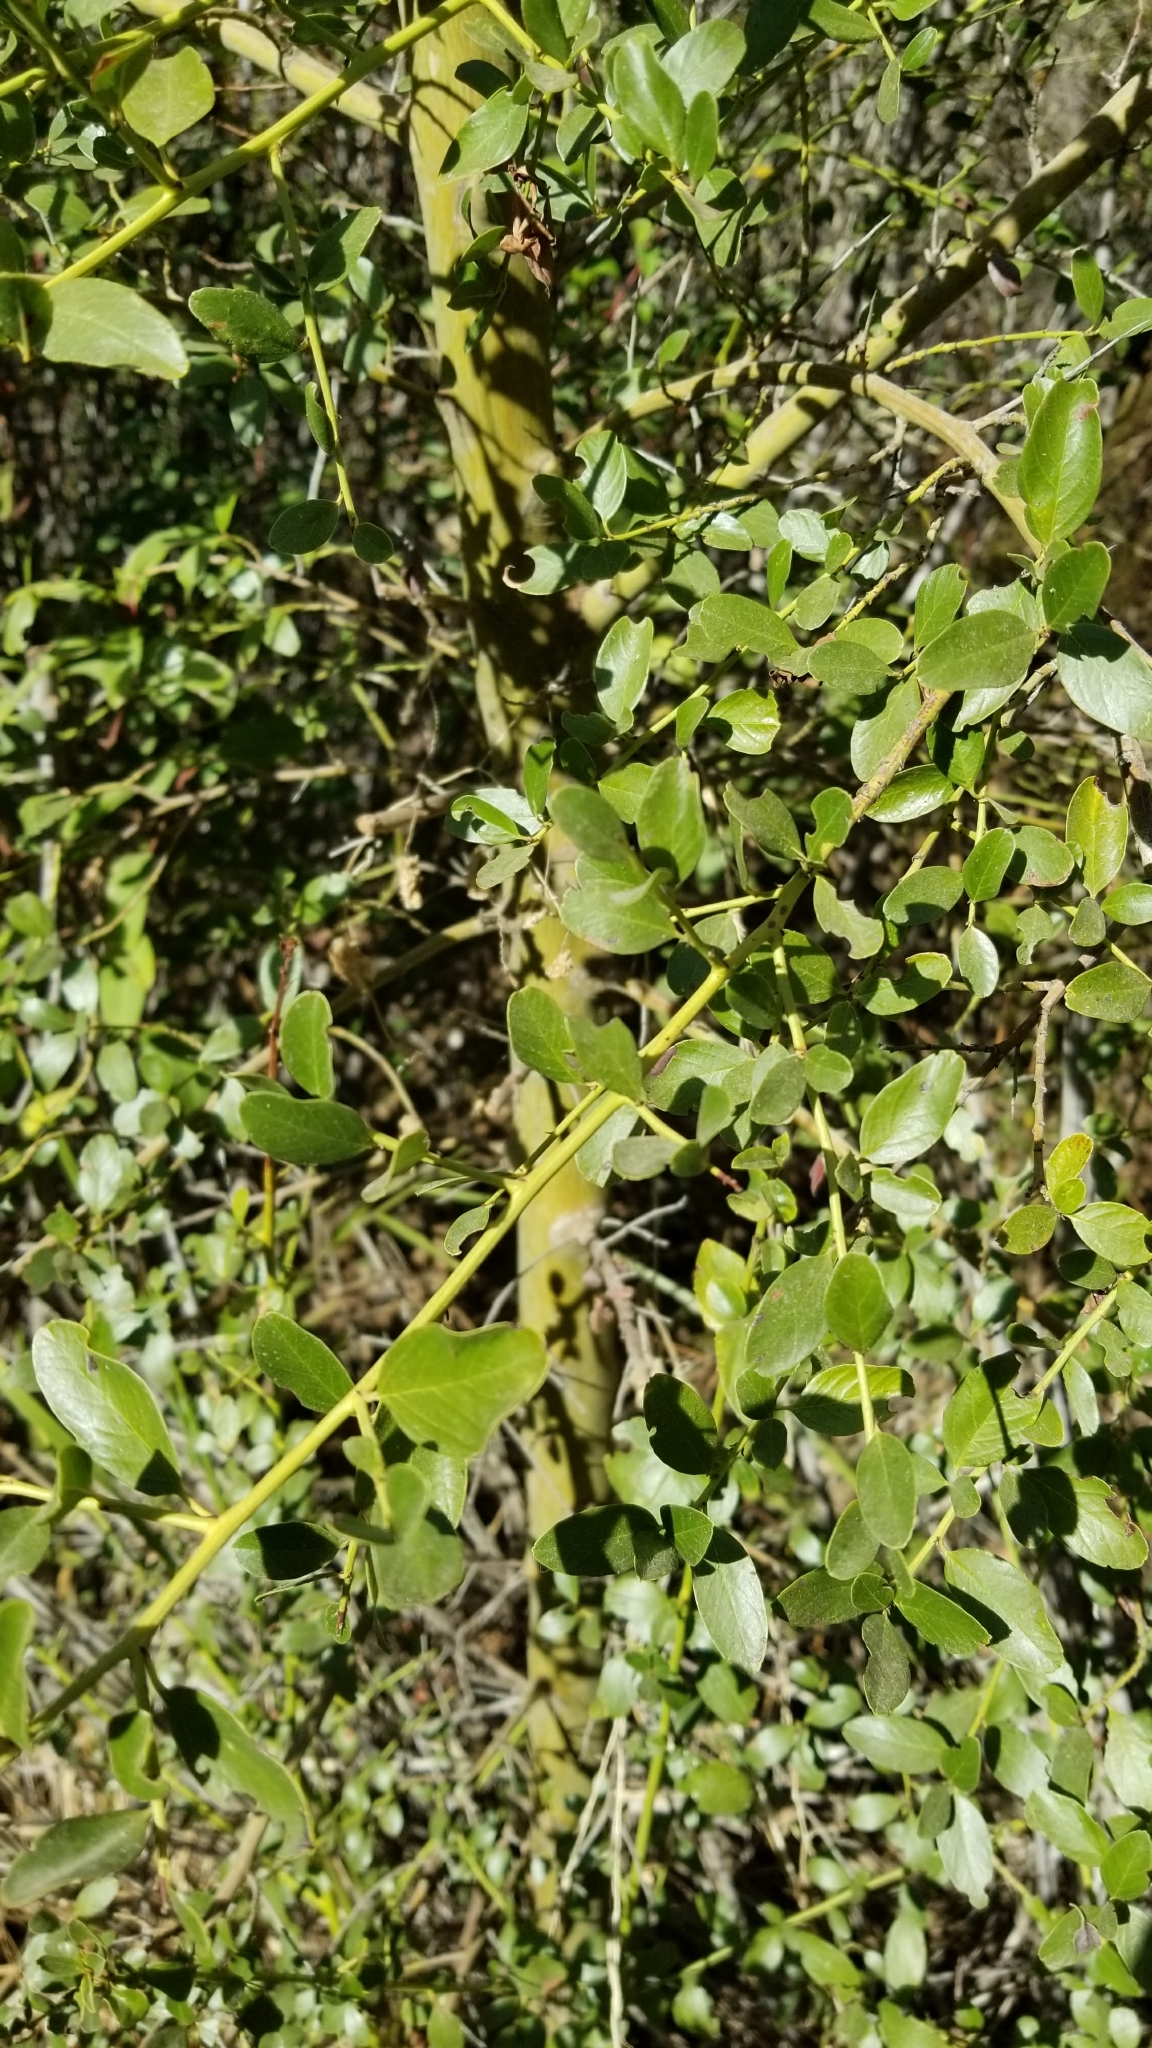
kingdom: Plantae
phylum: Tracheophyta
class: Magnoliopsida
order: Rosales
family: Rhamnaceae
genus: Ceanothus
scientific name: Ceanothus spinosus
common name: Greenbark whitethorn
